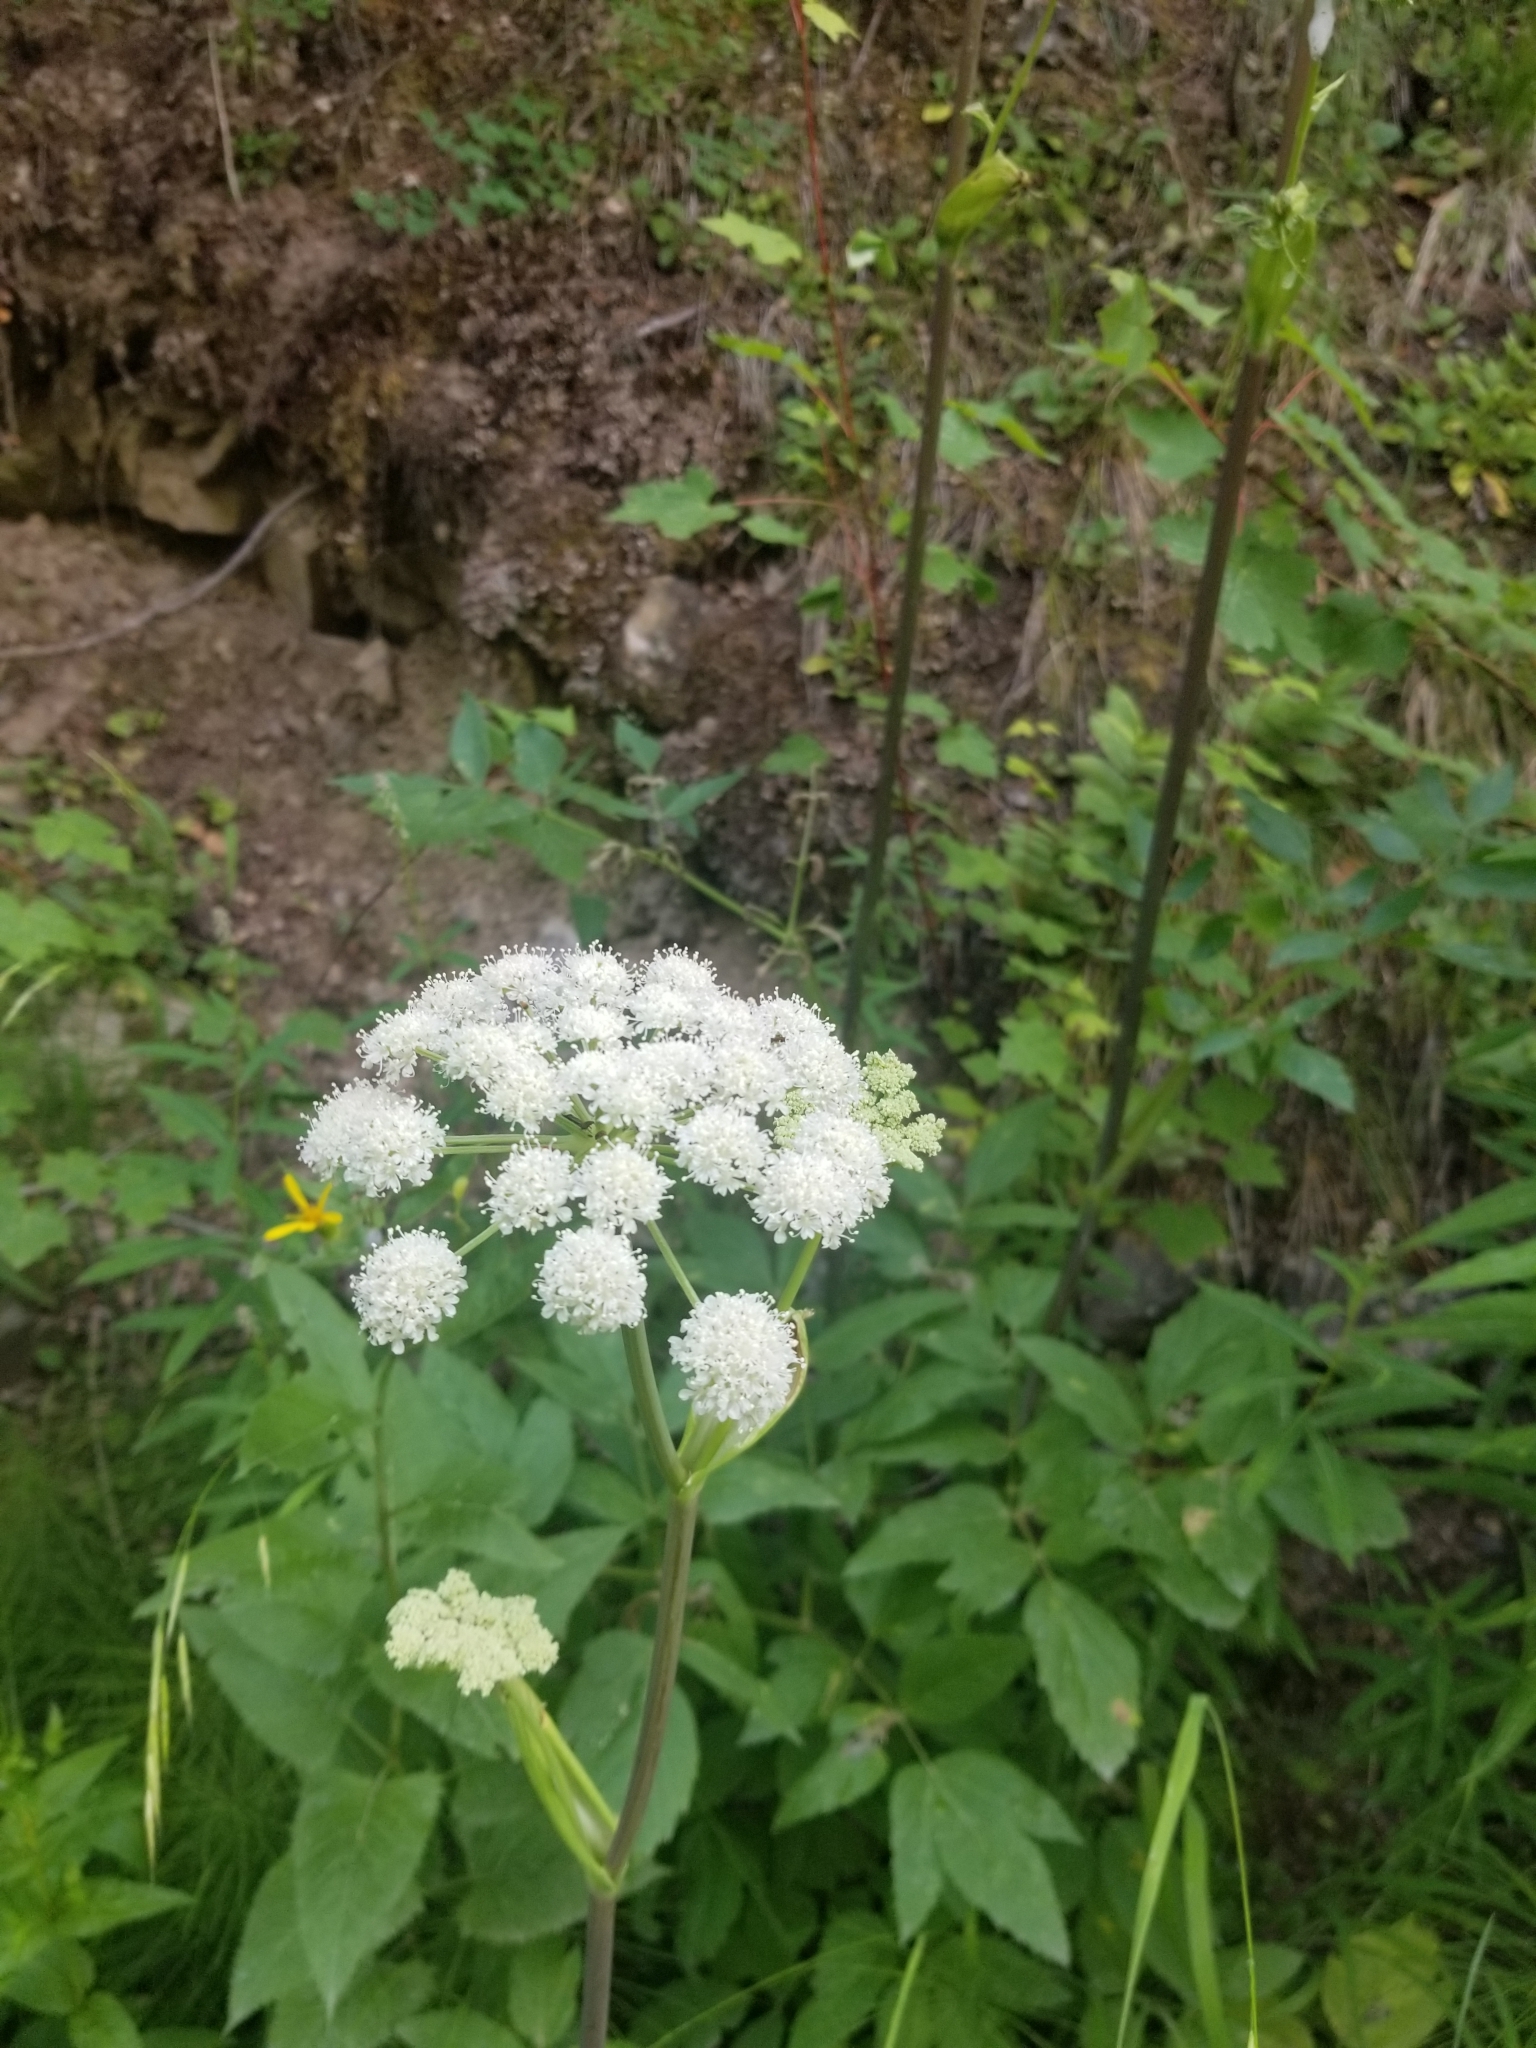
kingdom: Plantae
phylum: Tracheophyta
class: Magnoliopsida
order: Apiales
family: Apiaceae
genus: Heracleum
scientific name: Heracleum maximum
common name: American cow parsnip
